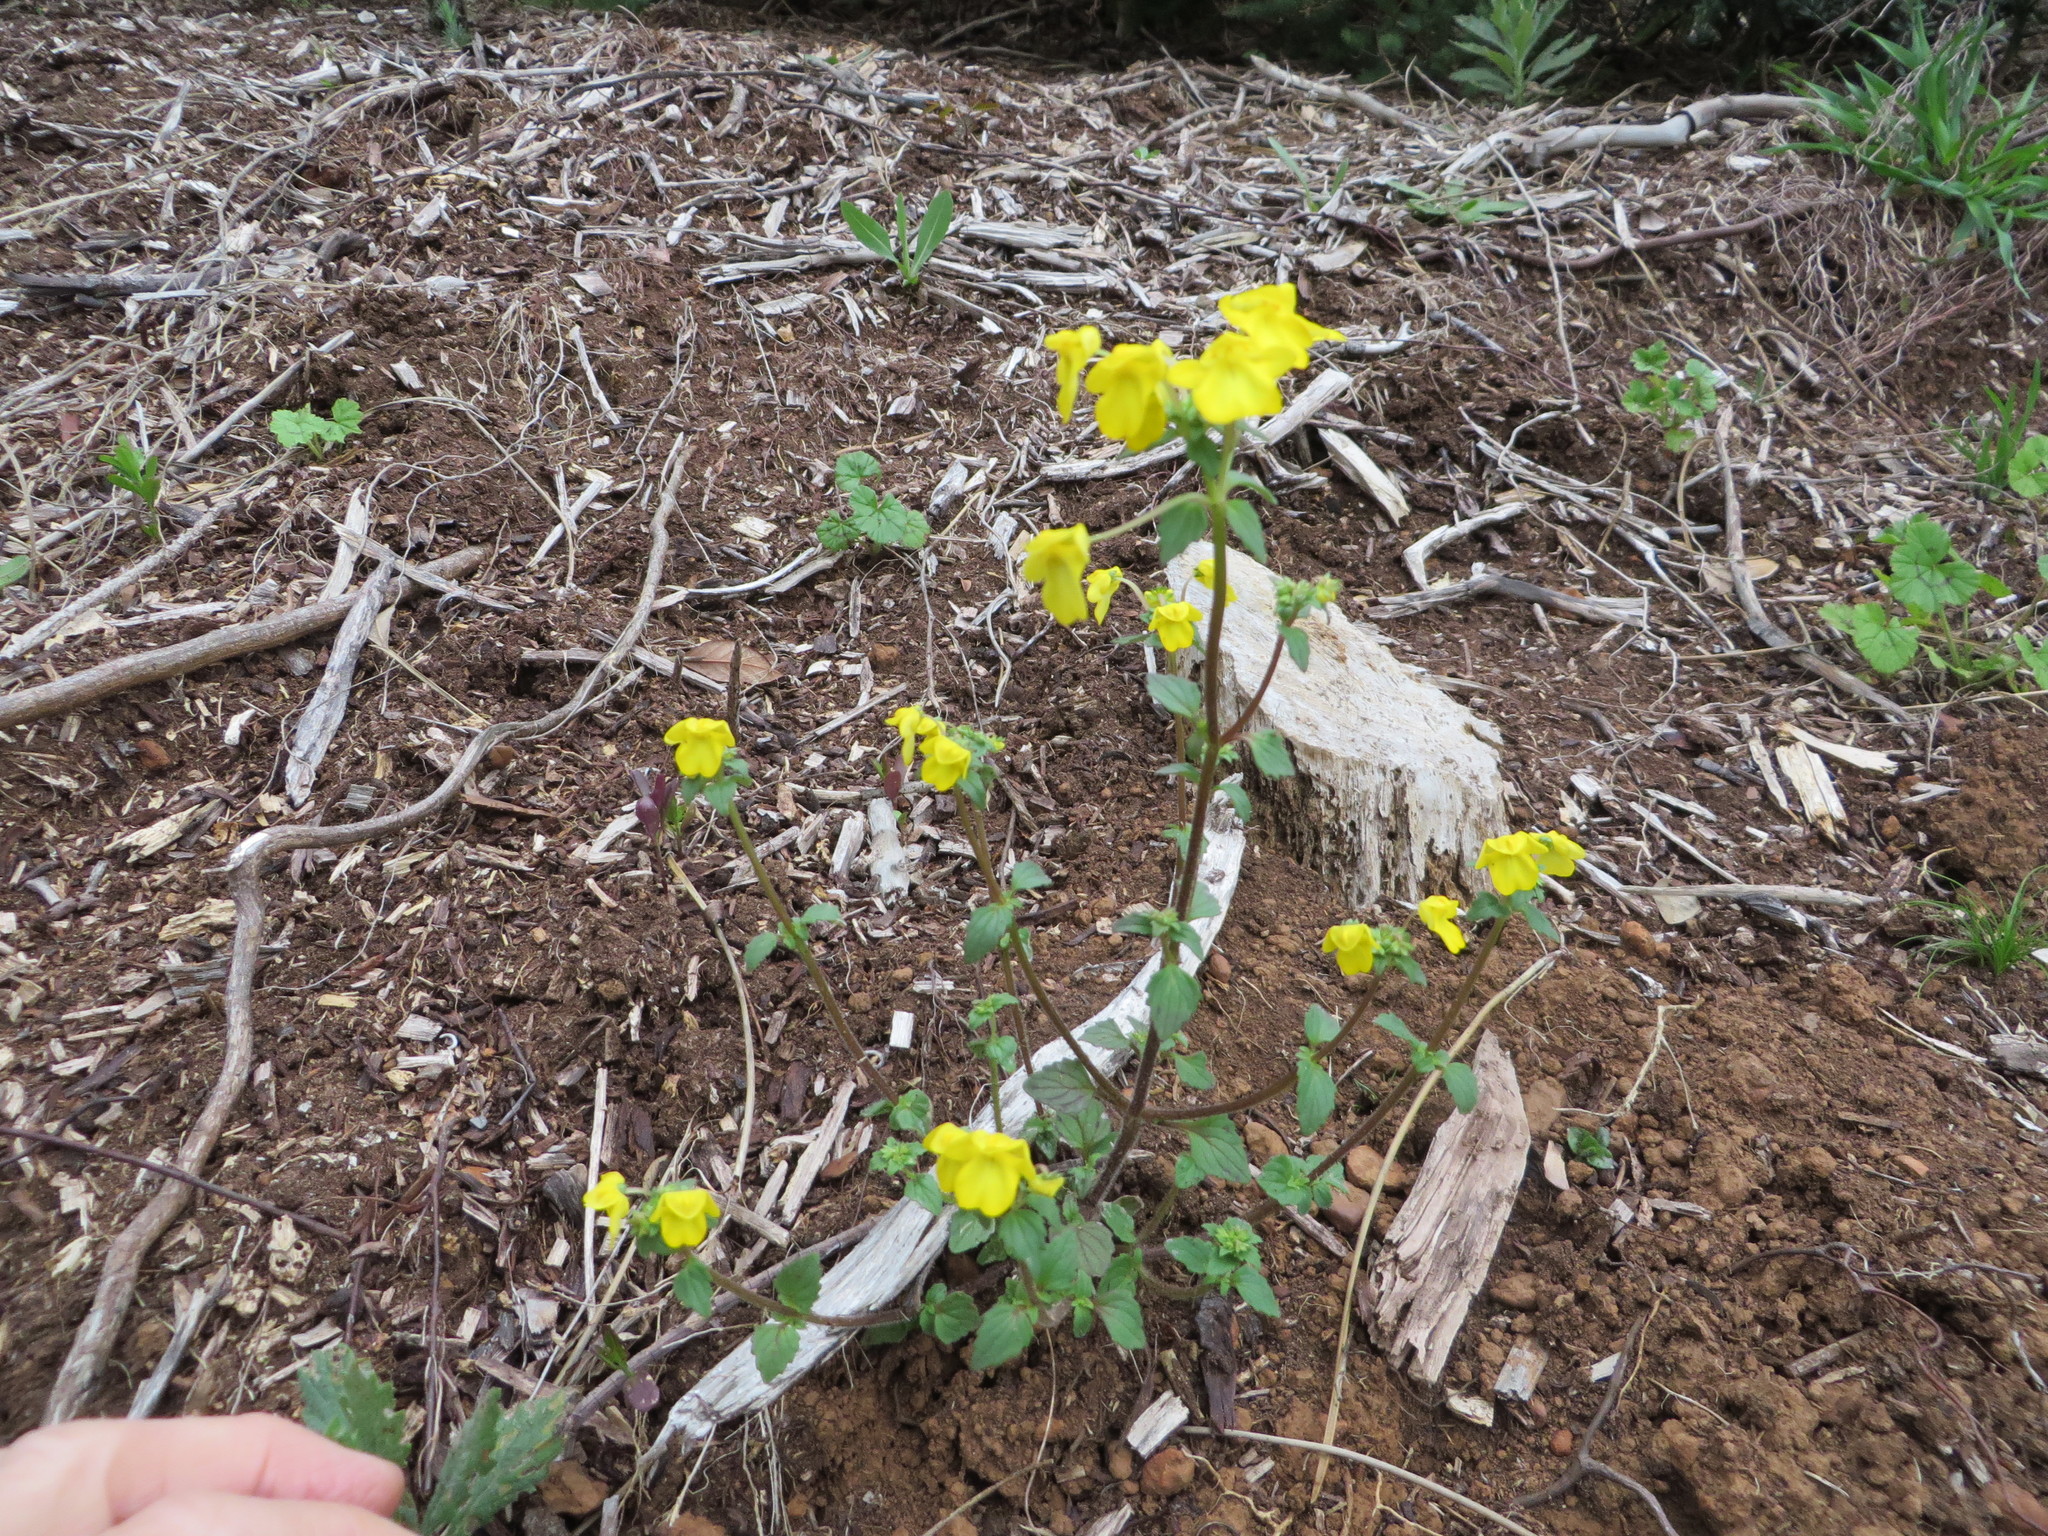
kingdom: Plantae
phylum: Tracheophyta
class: Magnoliopsida
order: Lamiales
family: Scrophulariaceae
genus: Hemimeris
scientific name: Hemimeris racemosa
